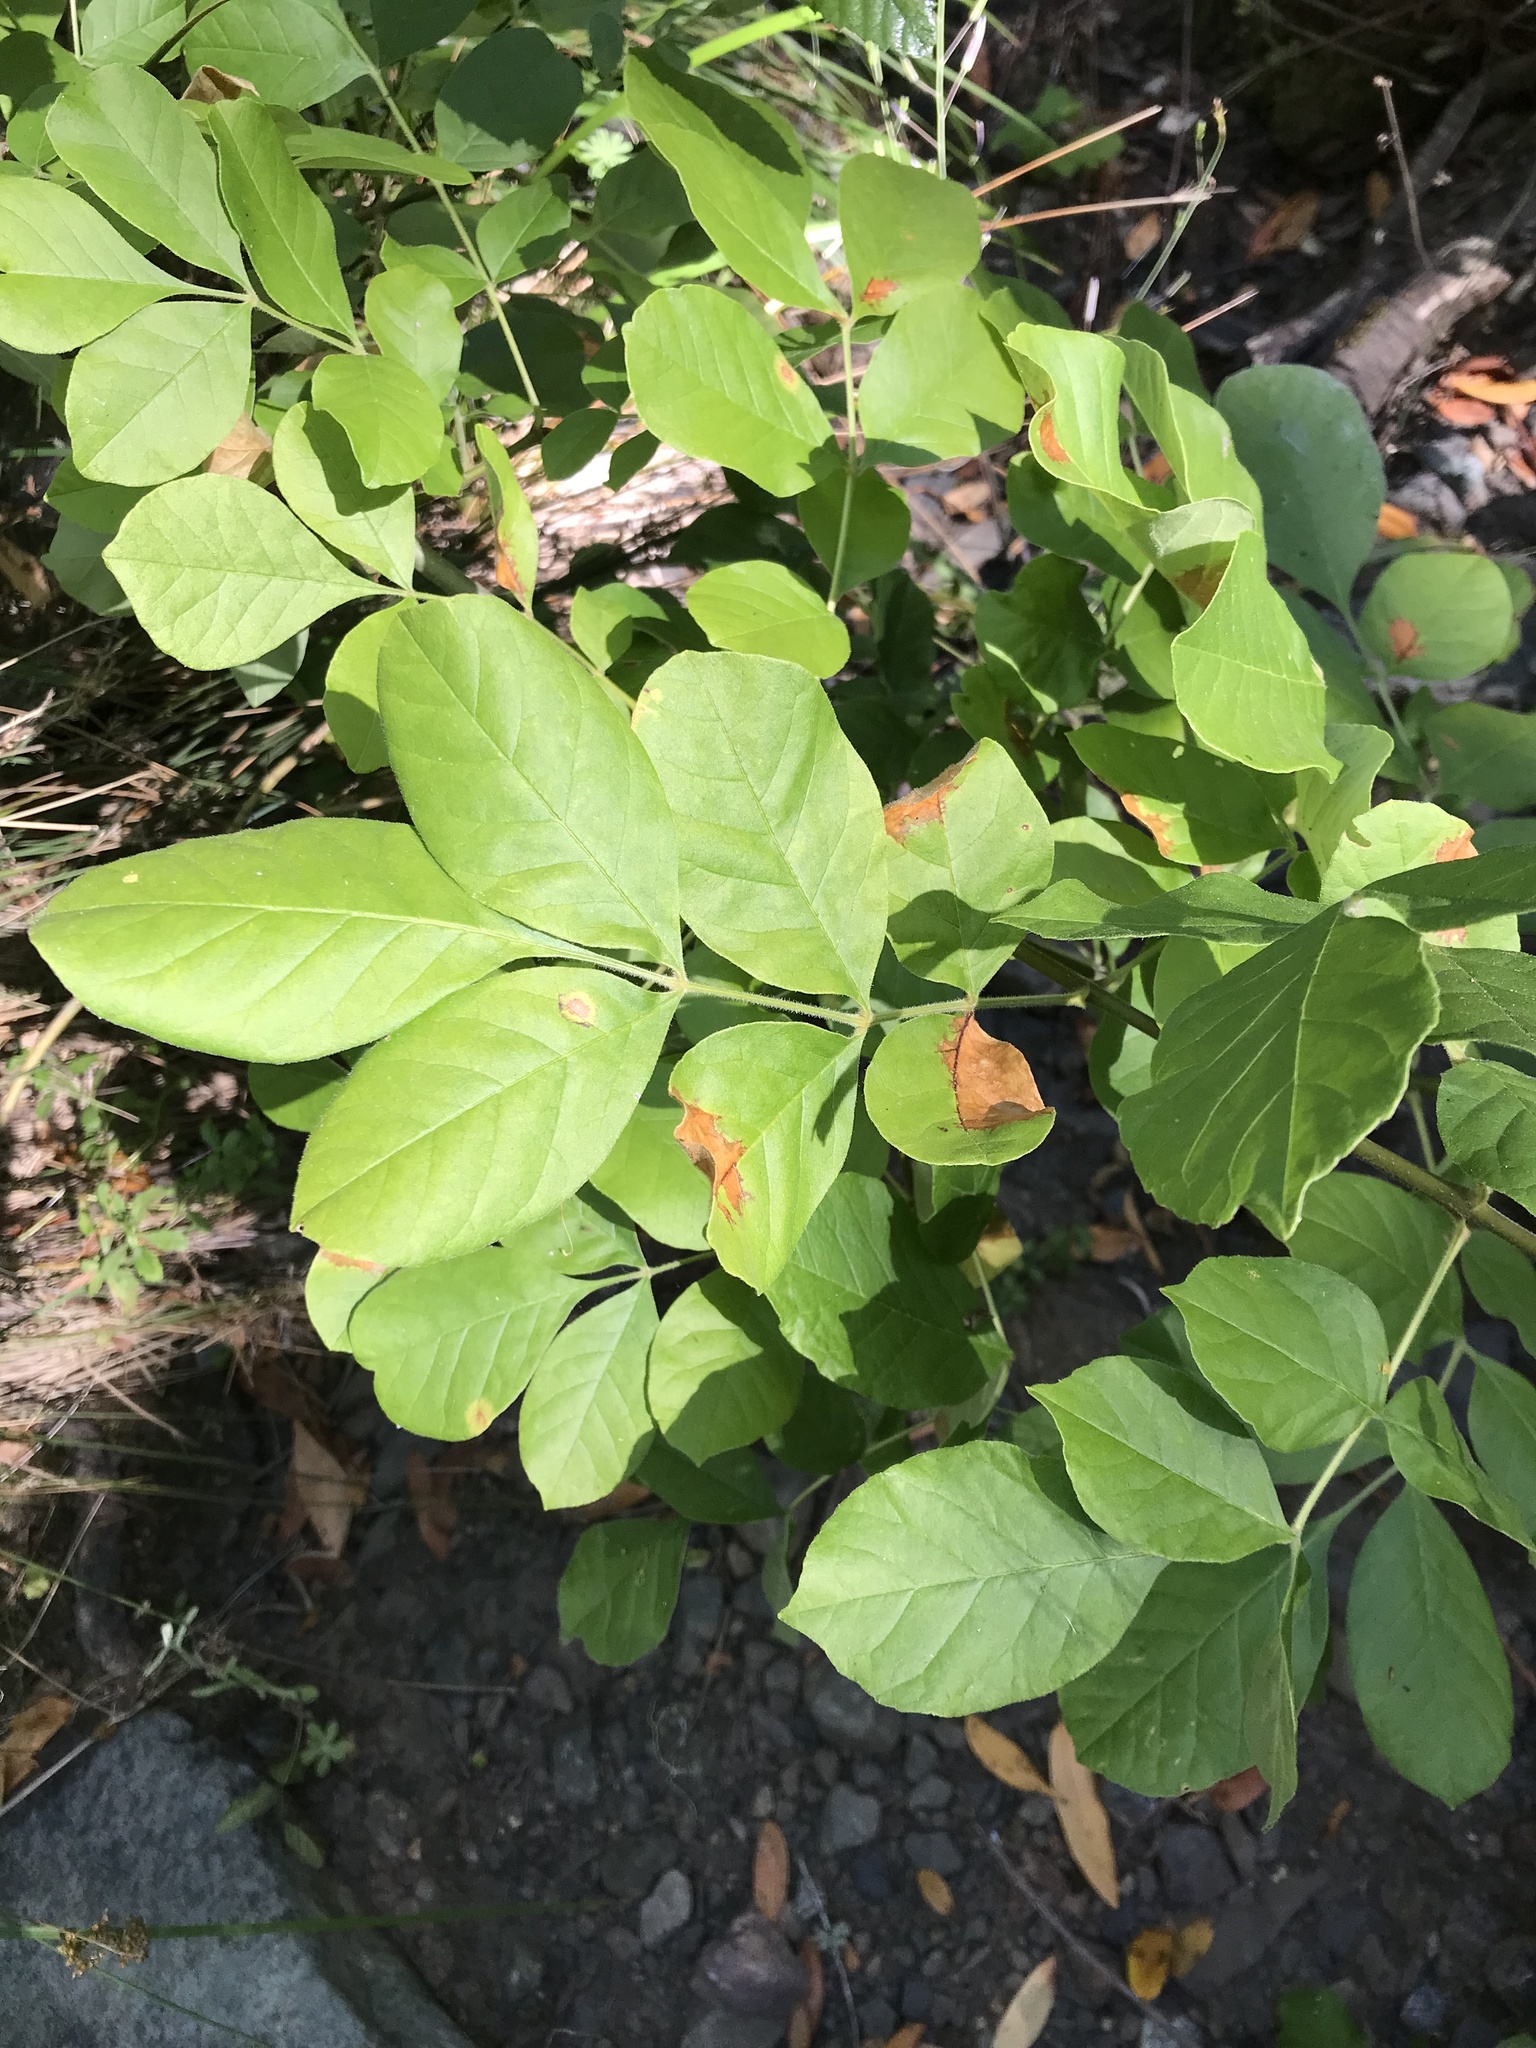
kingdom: Plantae
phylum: Tracheophyta
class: Magnoliopsida
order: Lamiales
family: Oleaceae
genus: Fraxinus
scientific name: Fraxinus latifolia
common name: Oregon ash
